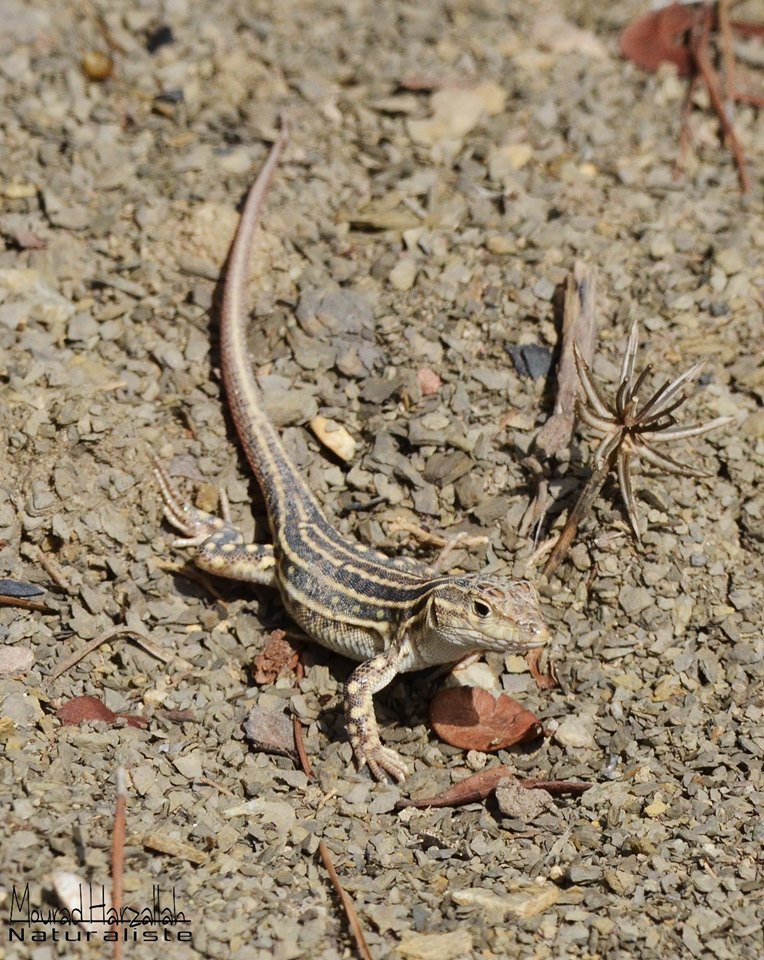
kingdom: Animalia
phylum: Chordata
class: Squamata
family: Lacertidae
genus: Acanthodactylus
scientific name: Acanthodactylus erythrurus
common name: Spiny-footed lizard
